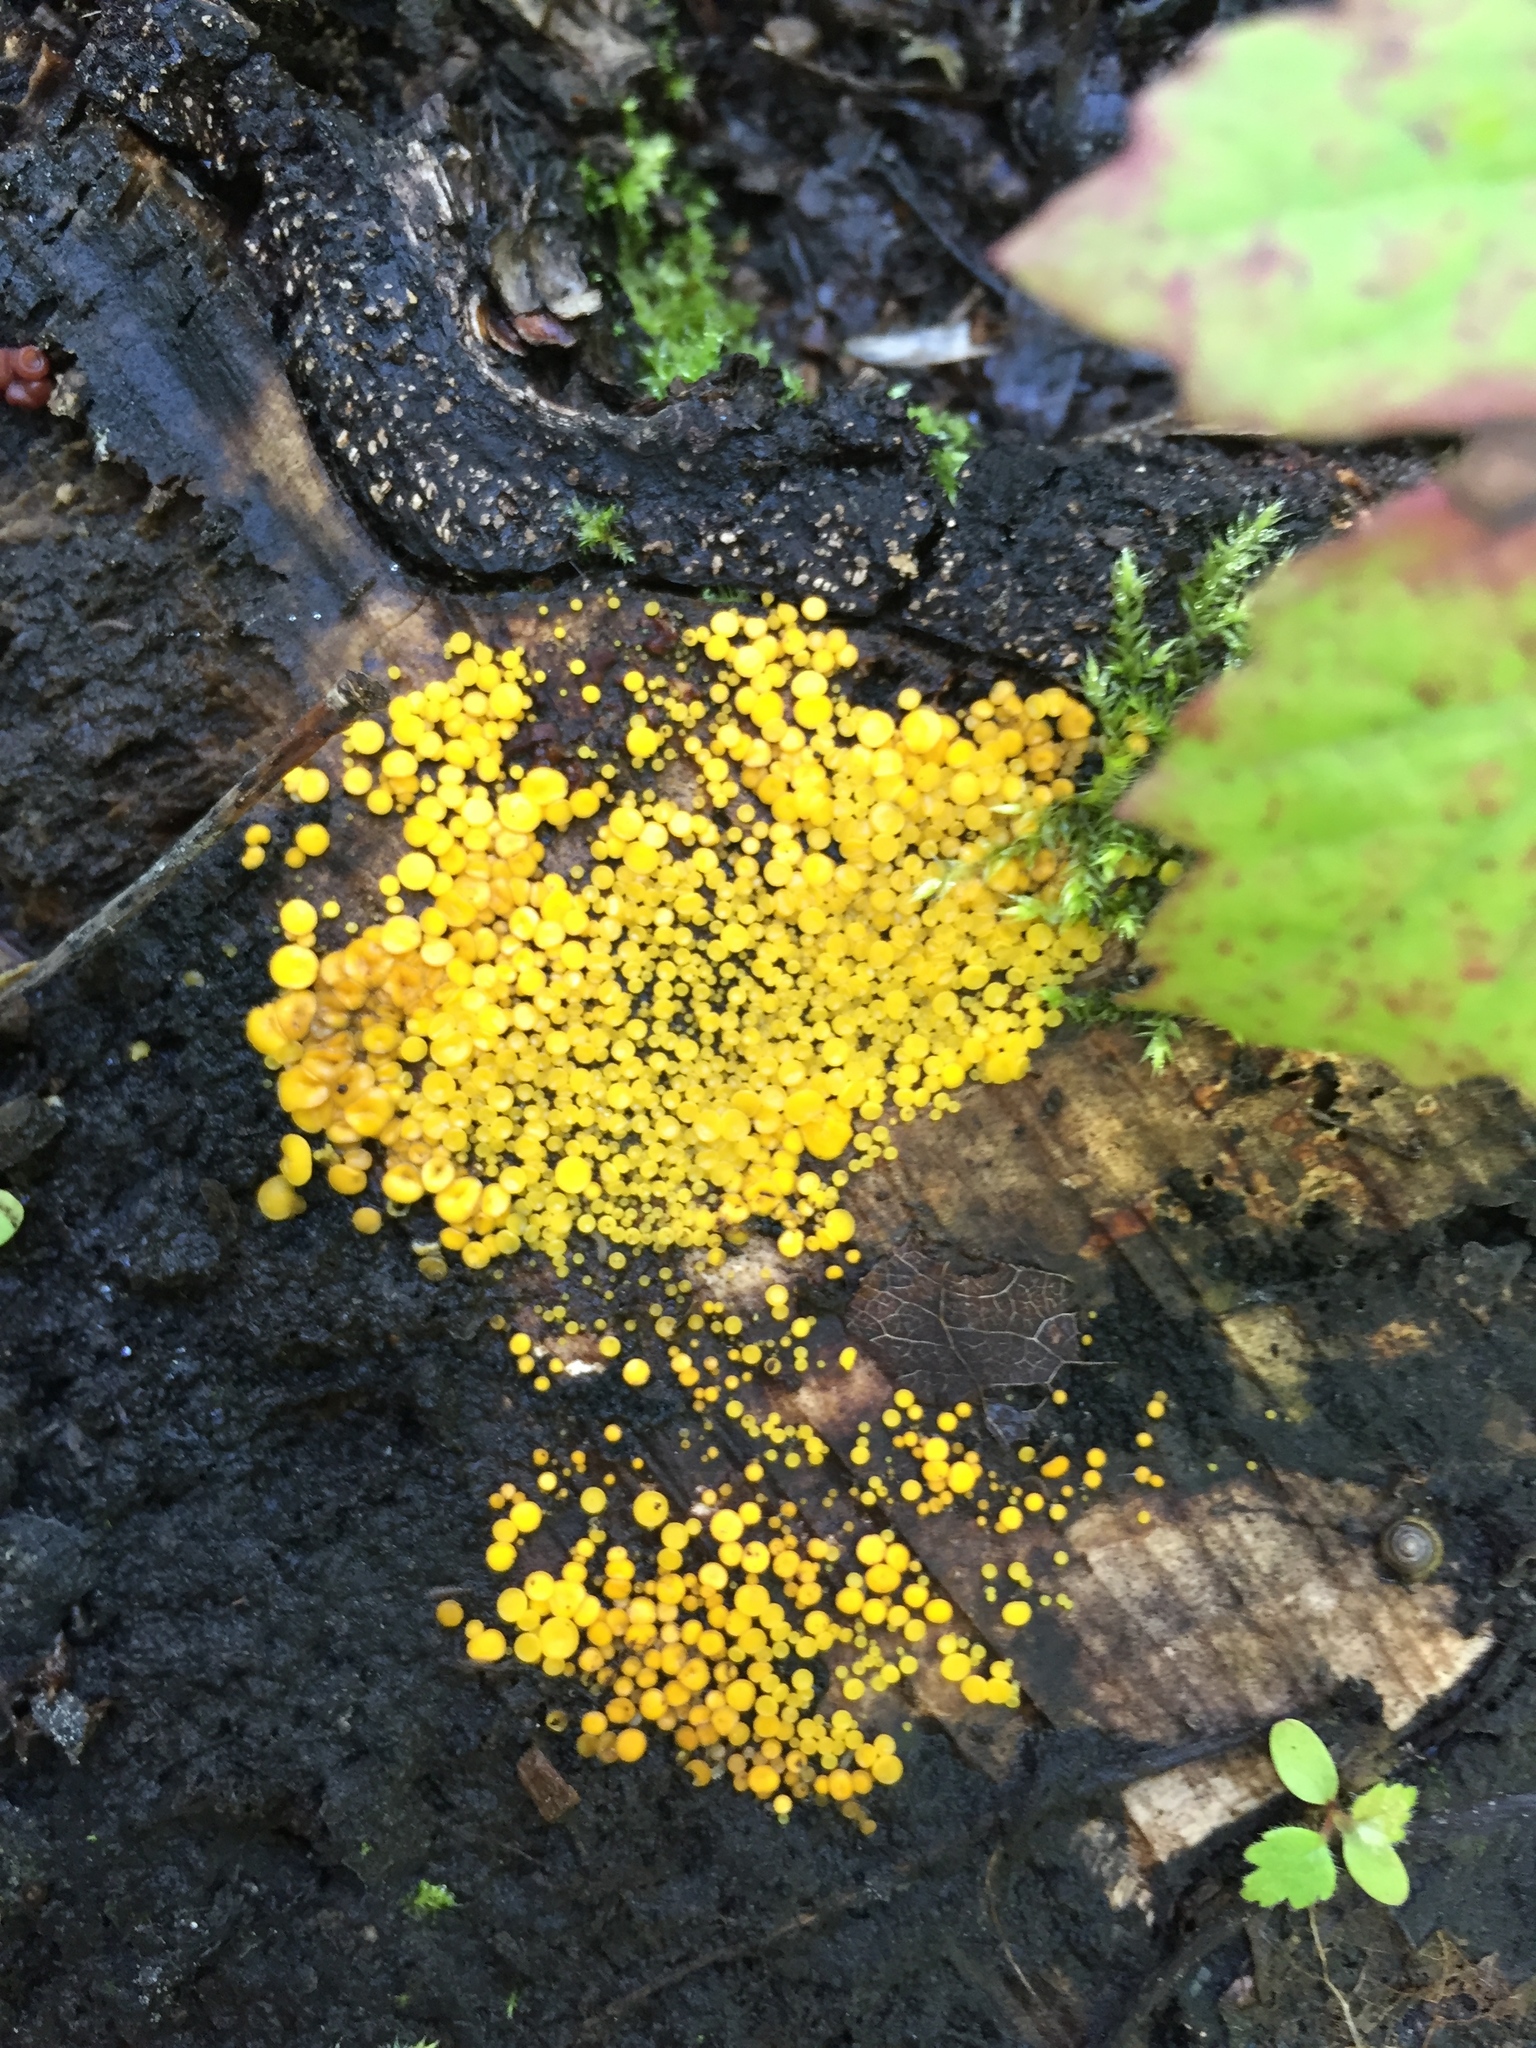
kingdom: Fungi
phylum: Ascomycota
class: Leotiomycetes
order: Helotiales
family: Pezizellaceae
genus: Calycina
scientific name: Calycina citrina
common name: Yellow fairy cups
